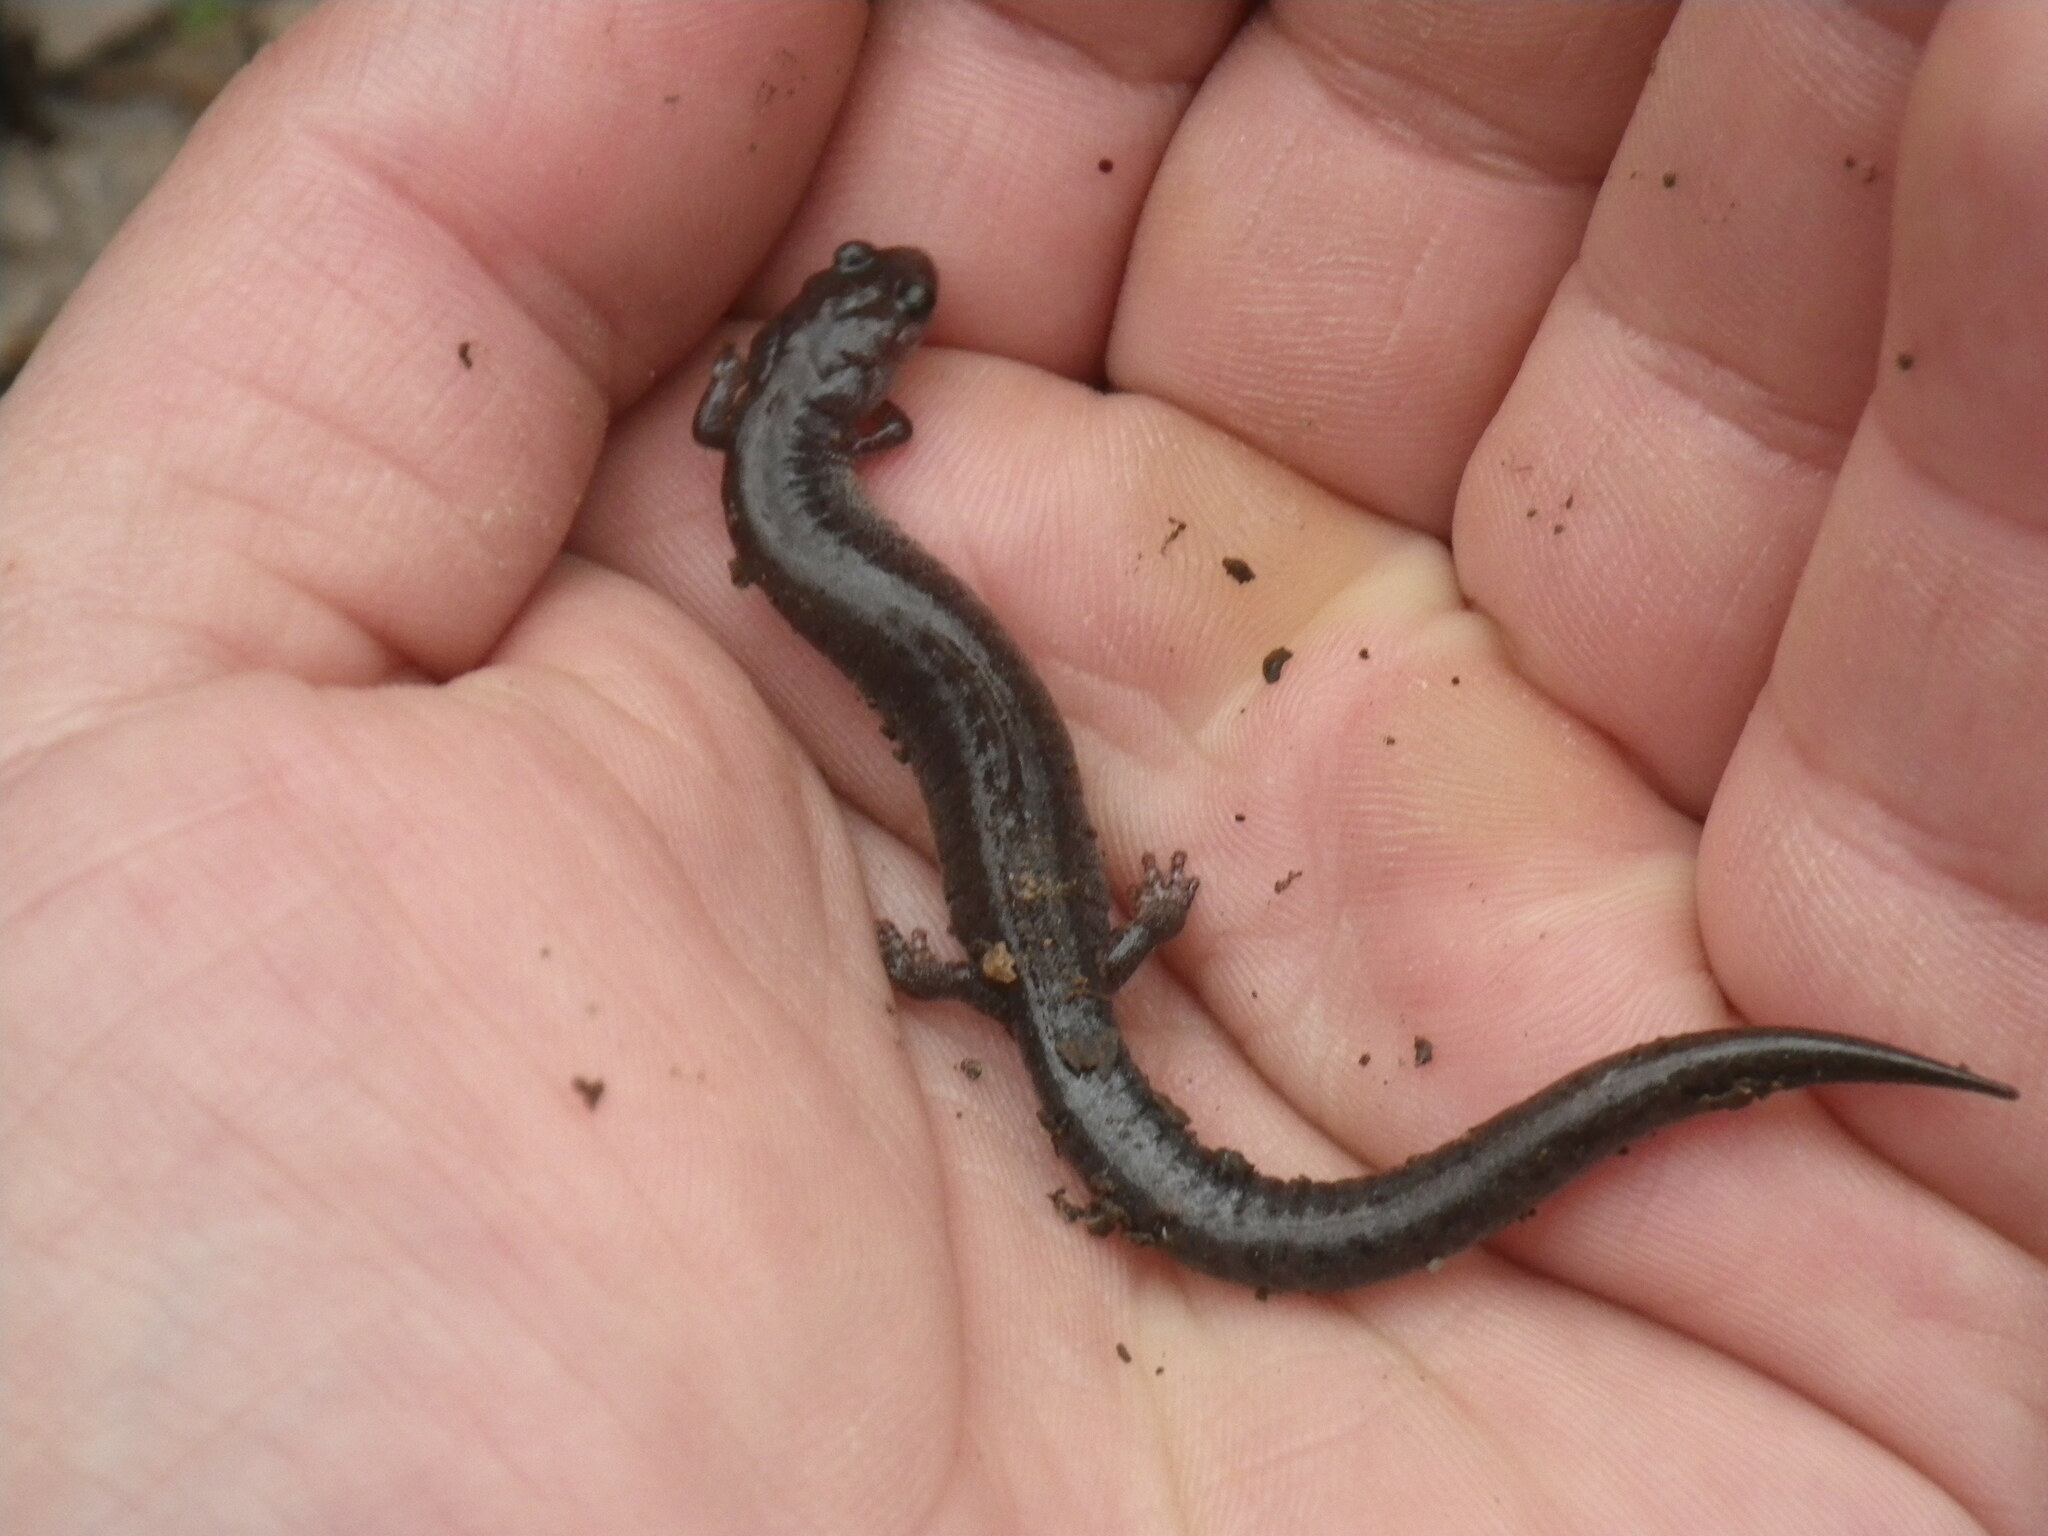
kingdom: Animalia
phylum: Chordata
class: Amphibia
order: Caudata
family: Plethodontidae
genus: Plethodon
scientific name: Plethodon dorsalis
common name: Northern zigzag salamander
